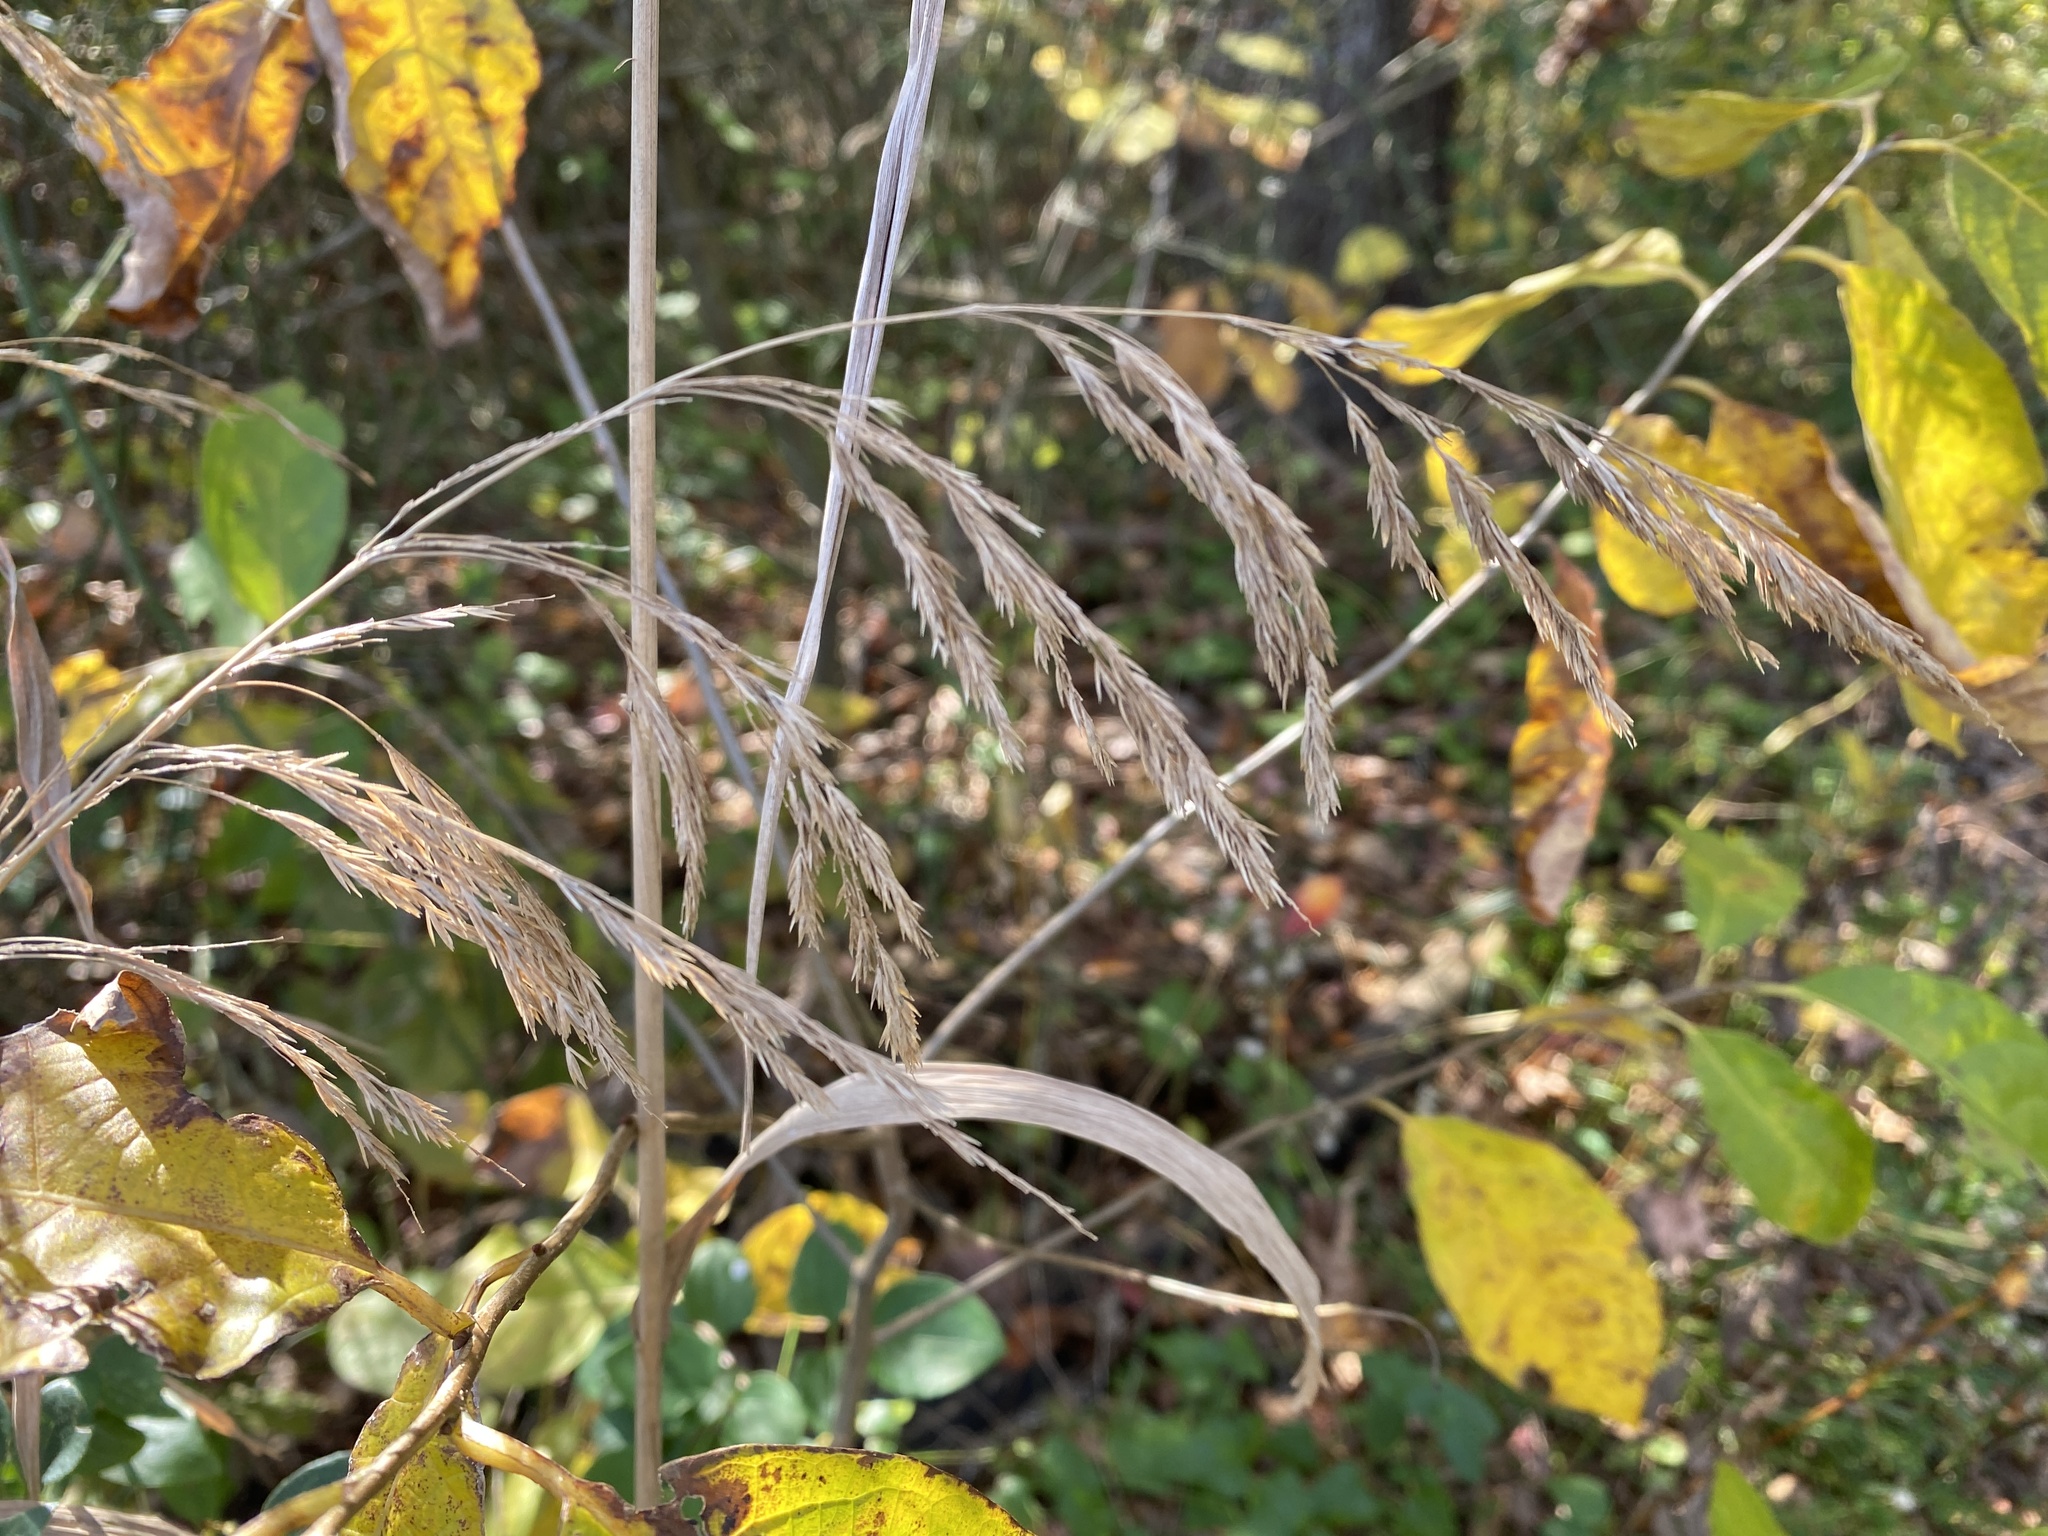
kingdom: Plantae
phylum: Tracheophyta
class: Liliopsida
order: Poales
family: Poaceae
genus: Cinna
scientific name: Cinna arundinacea
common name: Stout woodreed
